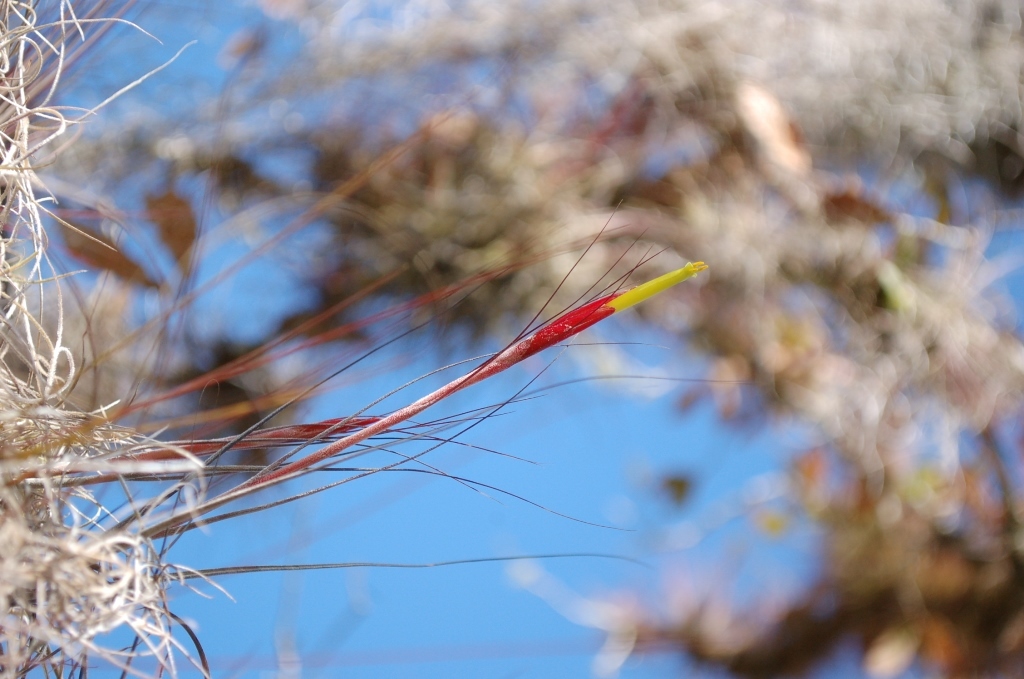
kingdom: Plantae
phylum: Tracheophyta
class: Liliopsida
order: Poales
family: Bromeliaceae
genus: Tillandsia
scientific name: Tillandsia schiedeana
